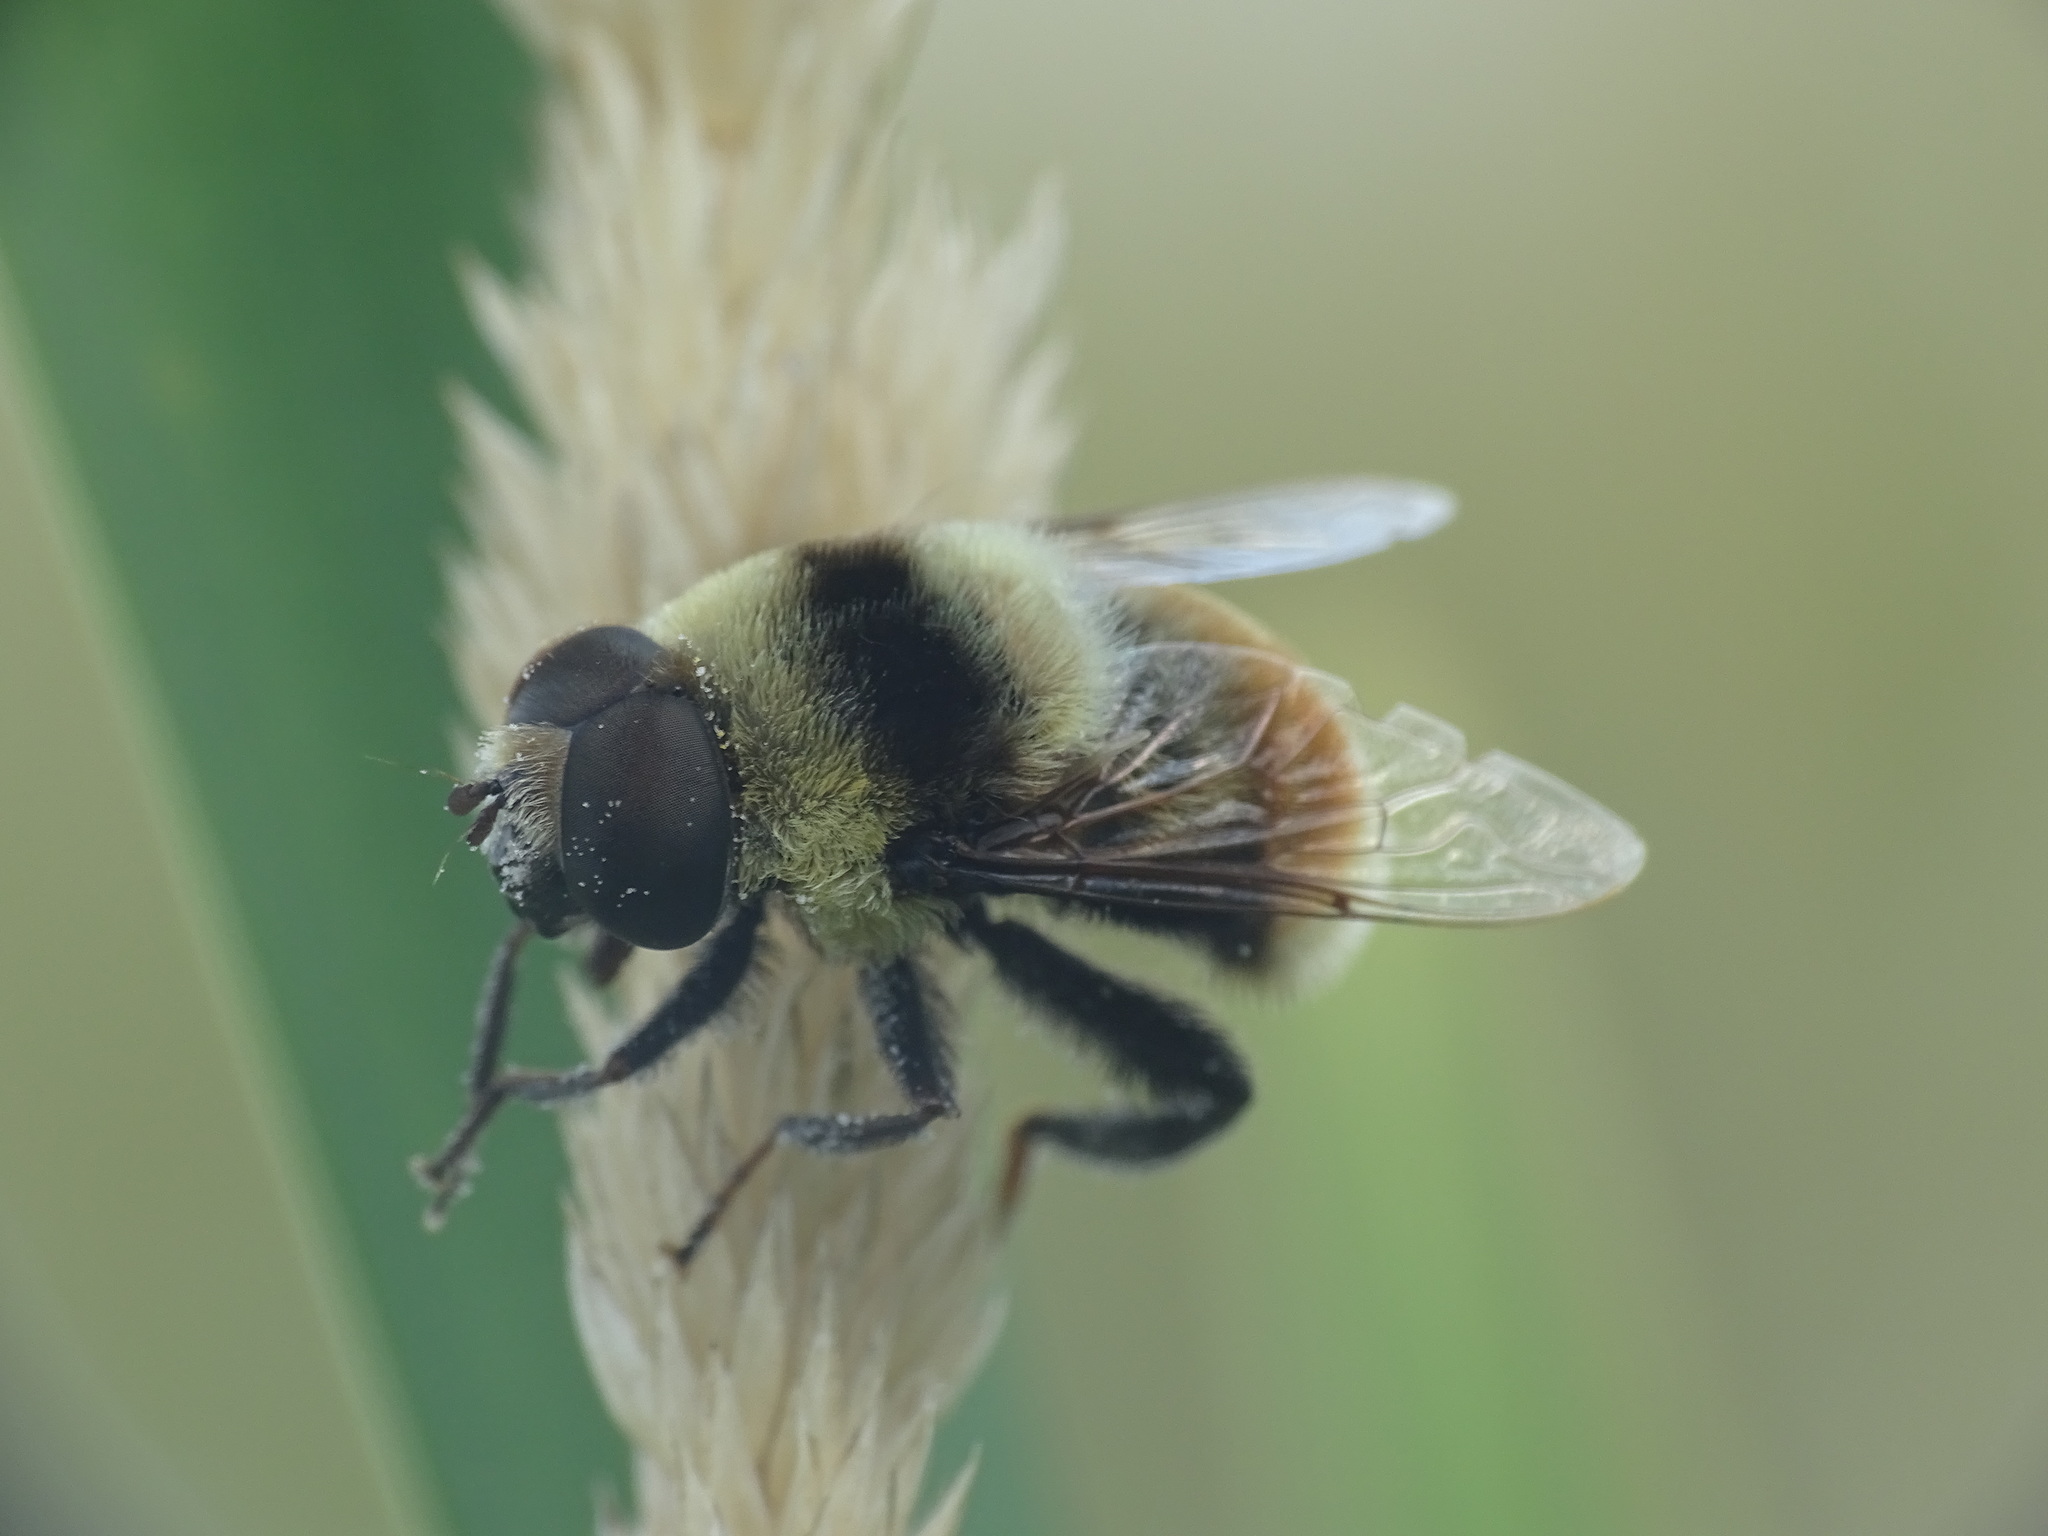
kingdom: Animalia
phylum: Arthropoda
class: Insecta
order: Diptera
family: Syrphidae
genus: Eristalis
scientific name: Eristalis flavipes
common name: Orange-legged drone fly
